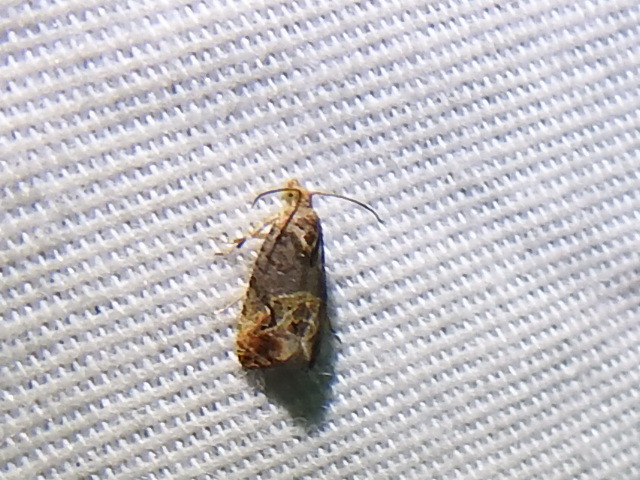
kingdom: Animalia
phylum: Arthropoda
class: Insecta
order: Lepidoptera
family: Tortricidae
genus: Paralobesia
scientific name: Paralobesia viteana
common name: Grape berry moth
